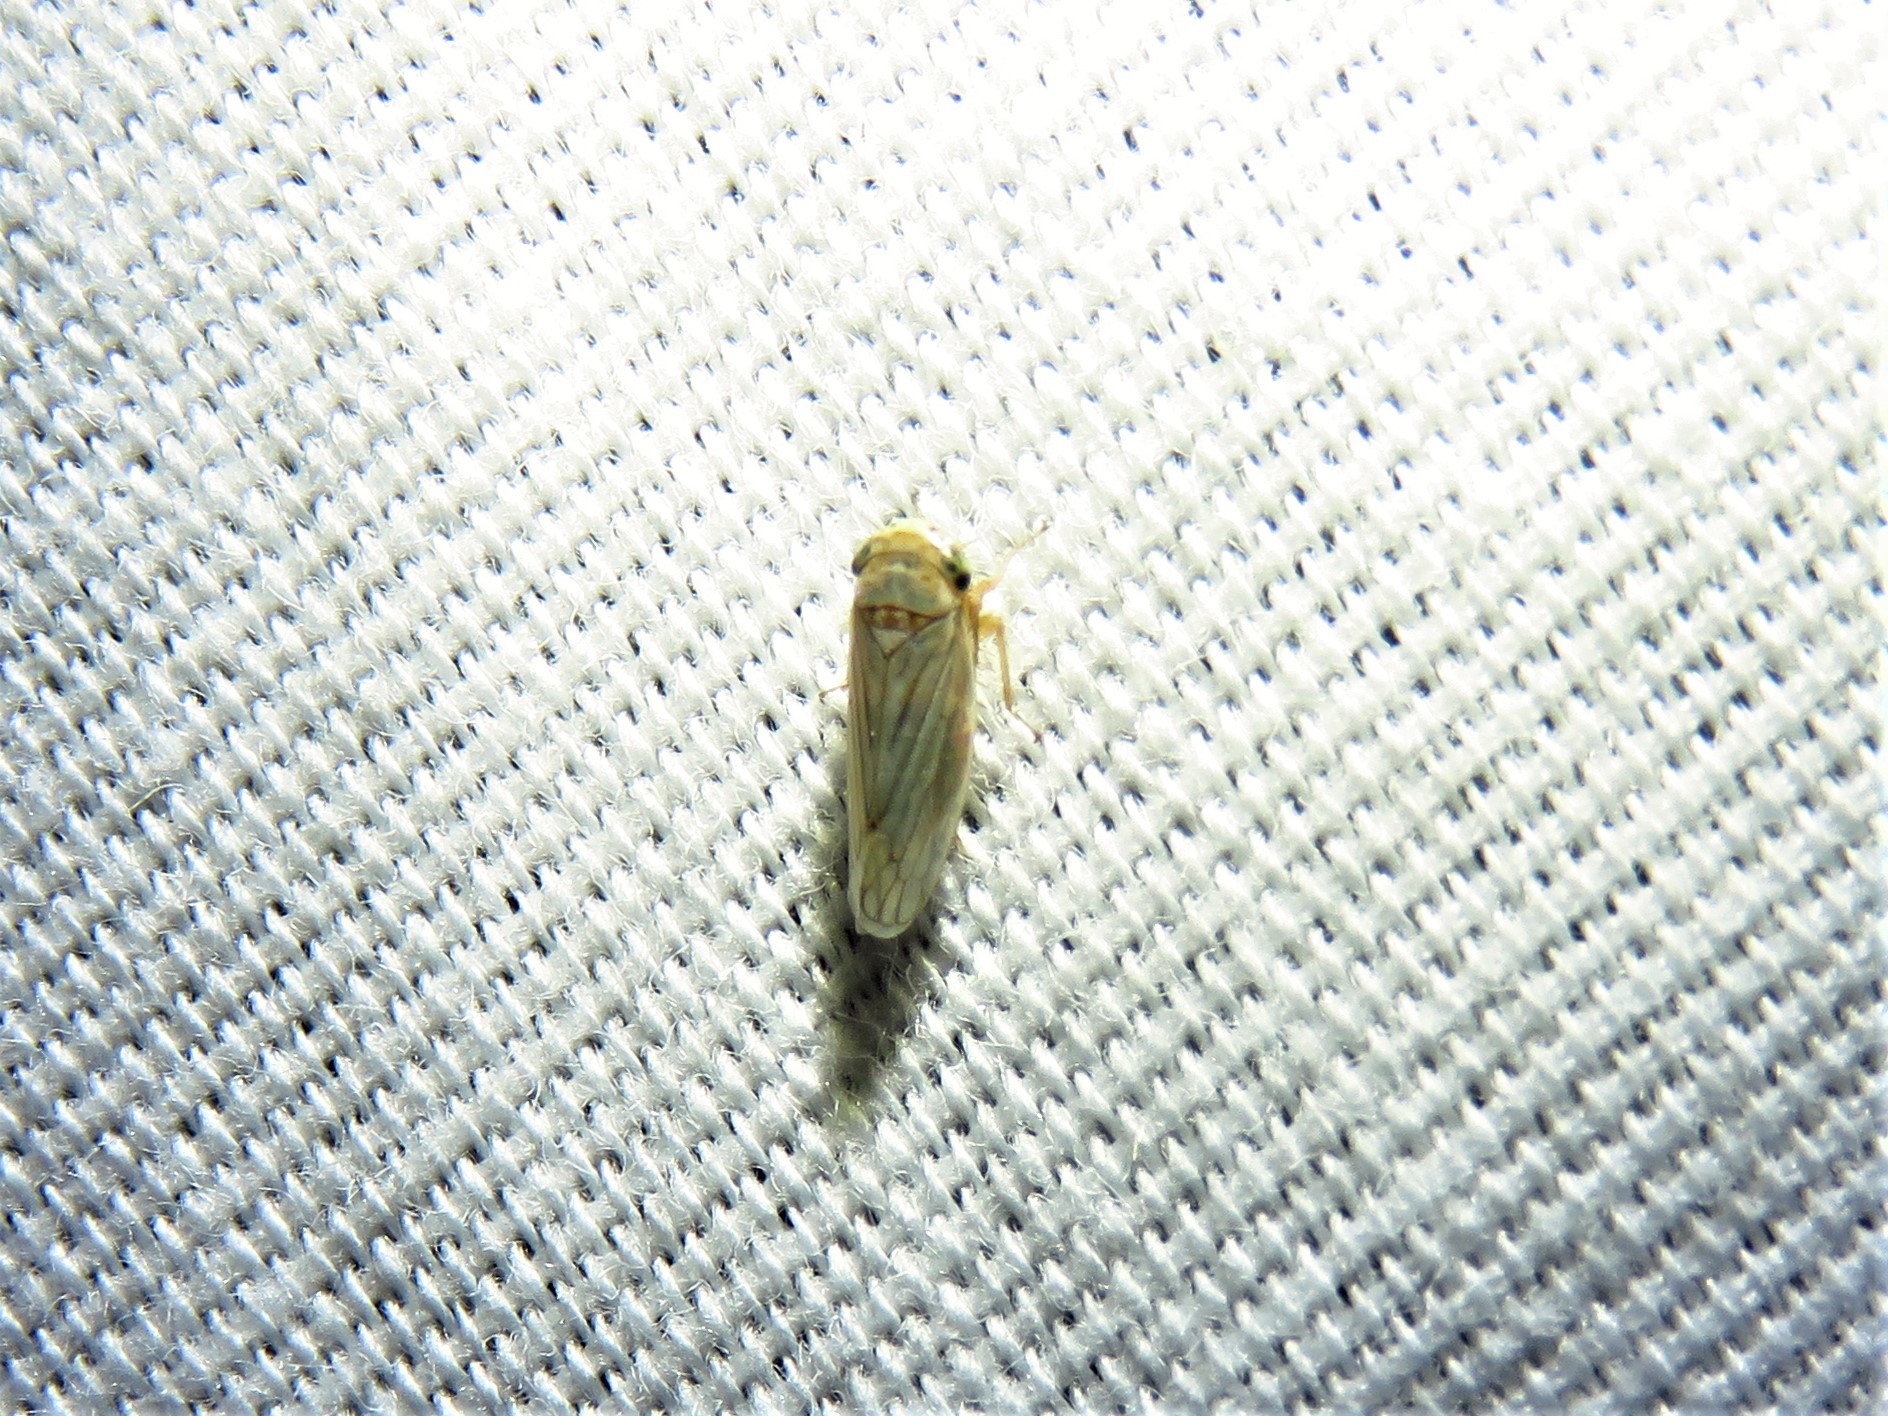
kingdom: Animalia
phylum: Arthropoda
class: Insecta
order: Hemiptera
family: Cicadellidae
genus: Exitianus
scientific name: Exitianus exitiosus
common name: Gray lawn leafhopper
